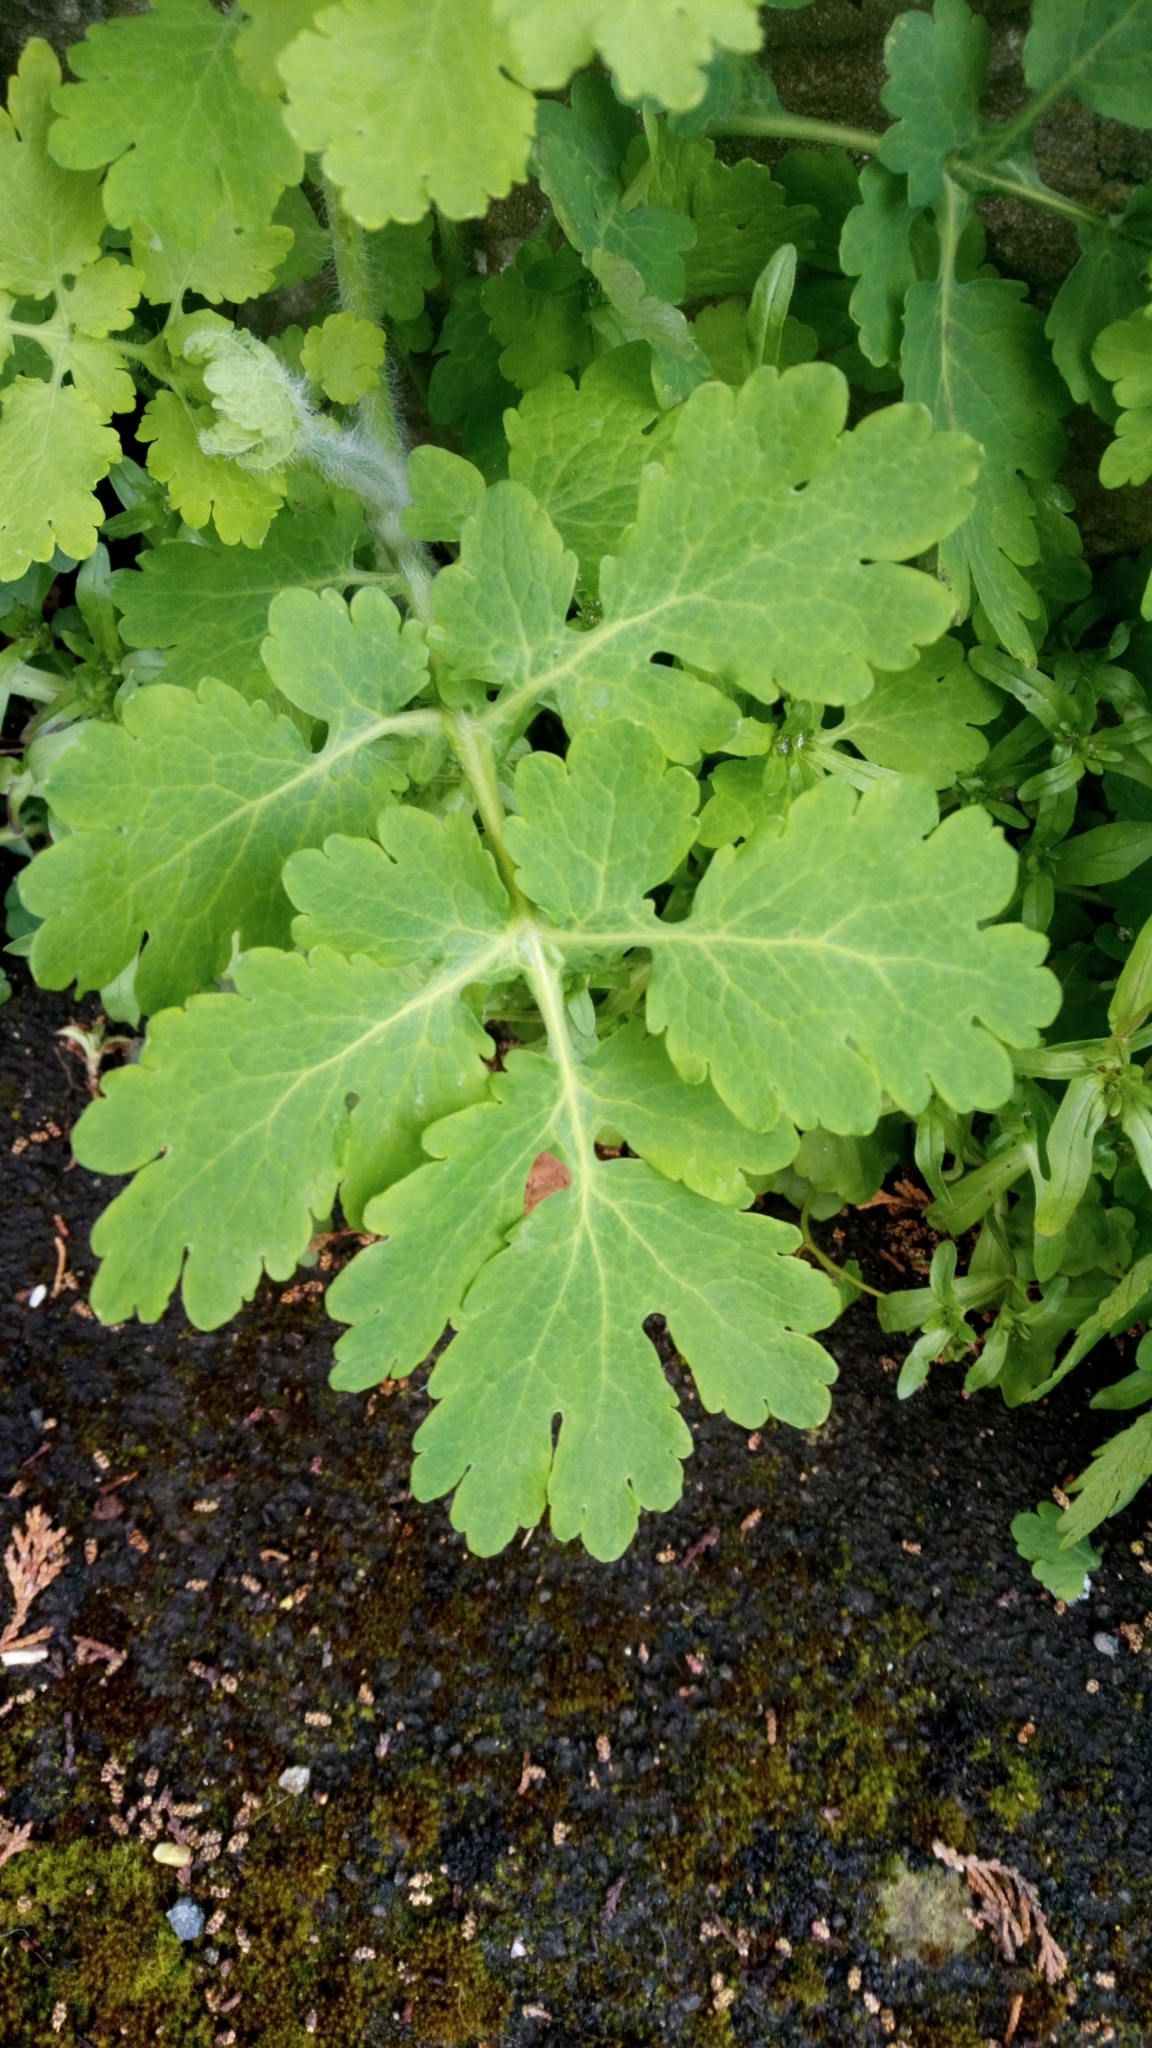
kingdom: Plantae
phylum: Tracheophyta
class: Magnoliopsida
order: Ranunculales
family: Papaveraceae
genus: Chelidonium
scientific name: Chelidonium majus
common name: Greater celandine
